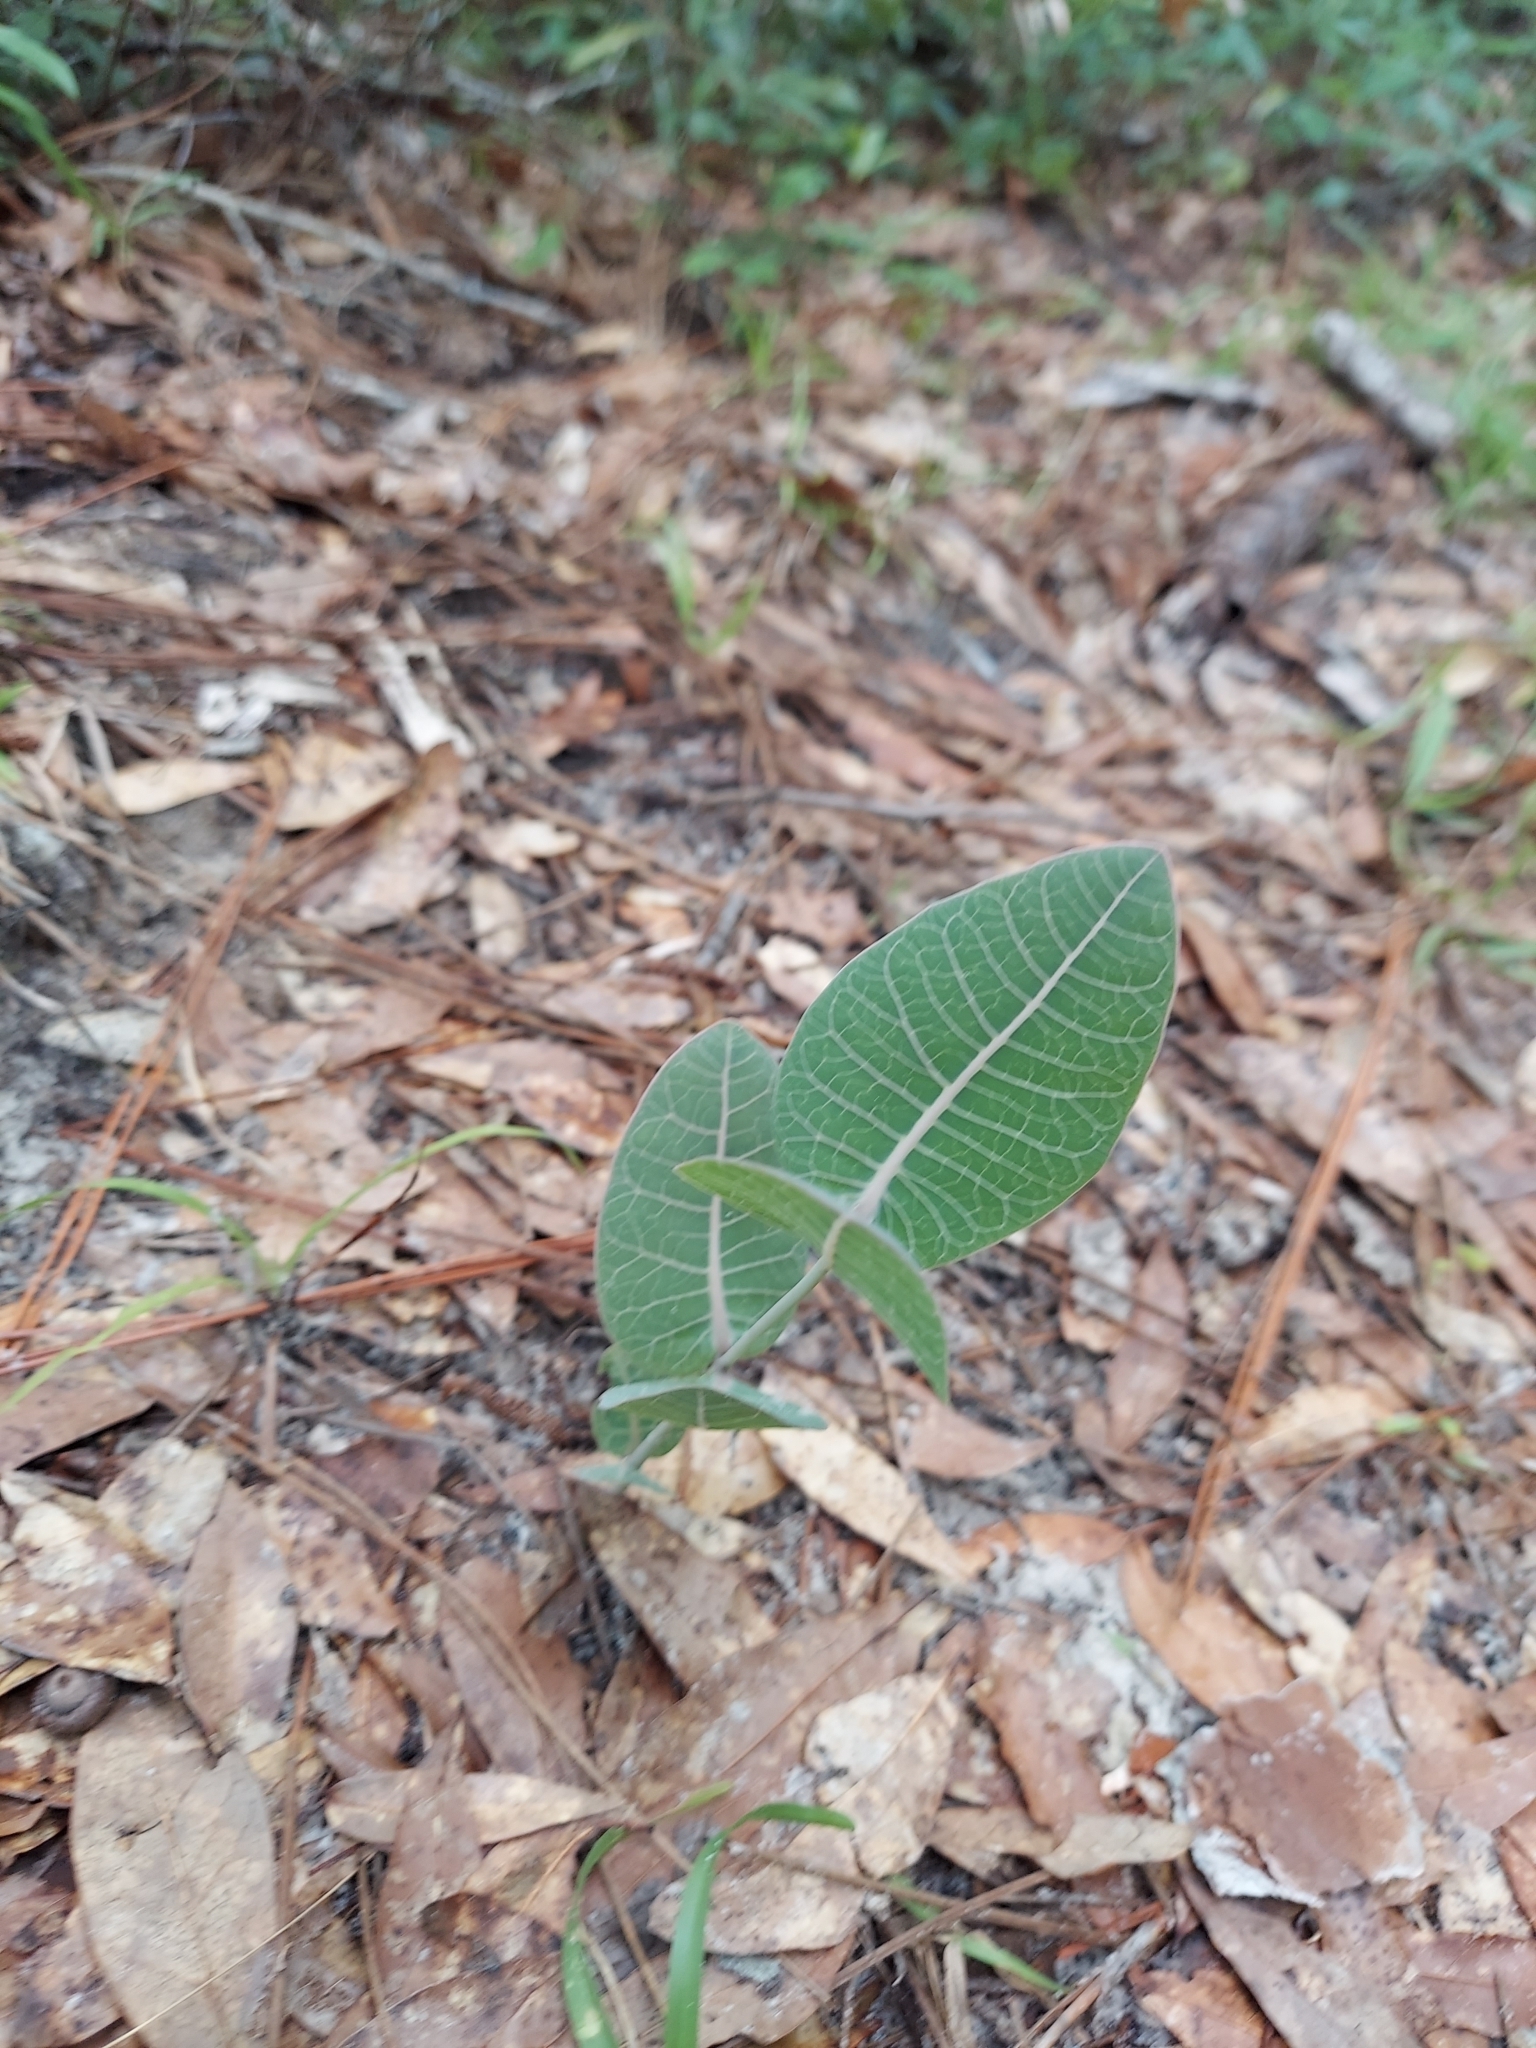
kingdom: Plantae
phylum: Tracheophyta
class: Magnoliopsida
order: Gentianales
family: Apocynaceae
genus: Asclepias
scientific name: Asclepias humistrata
